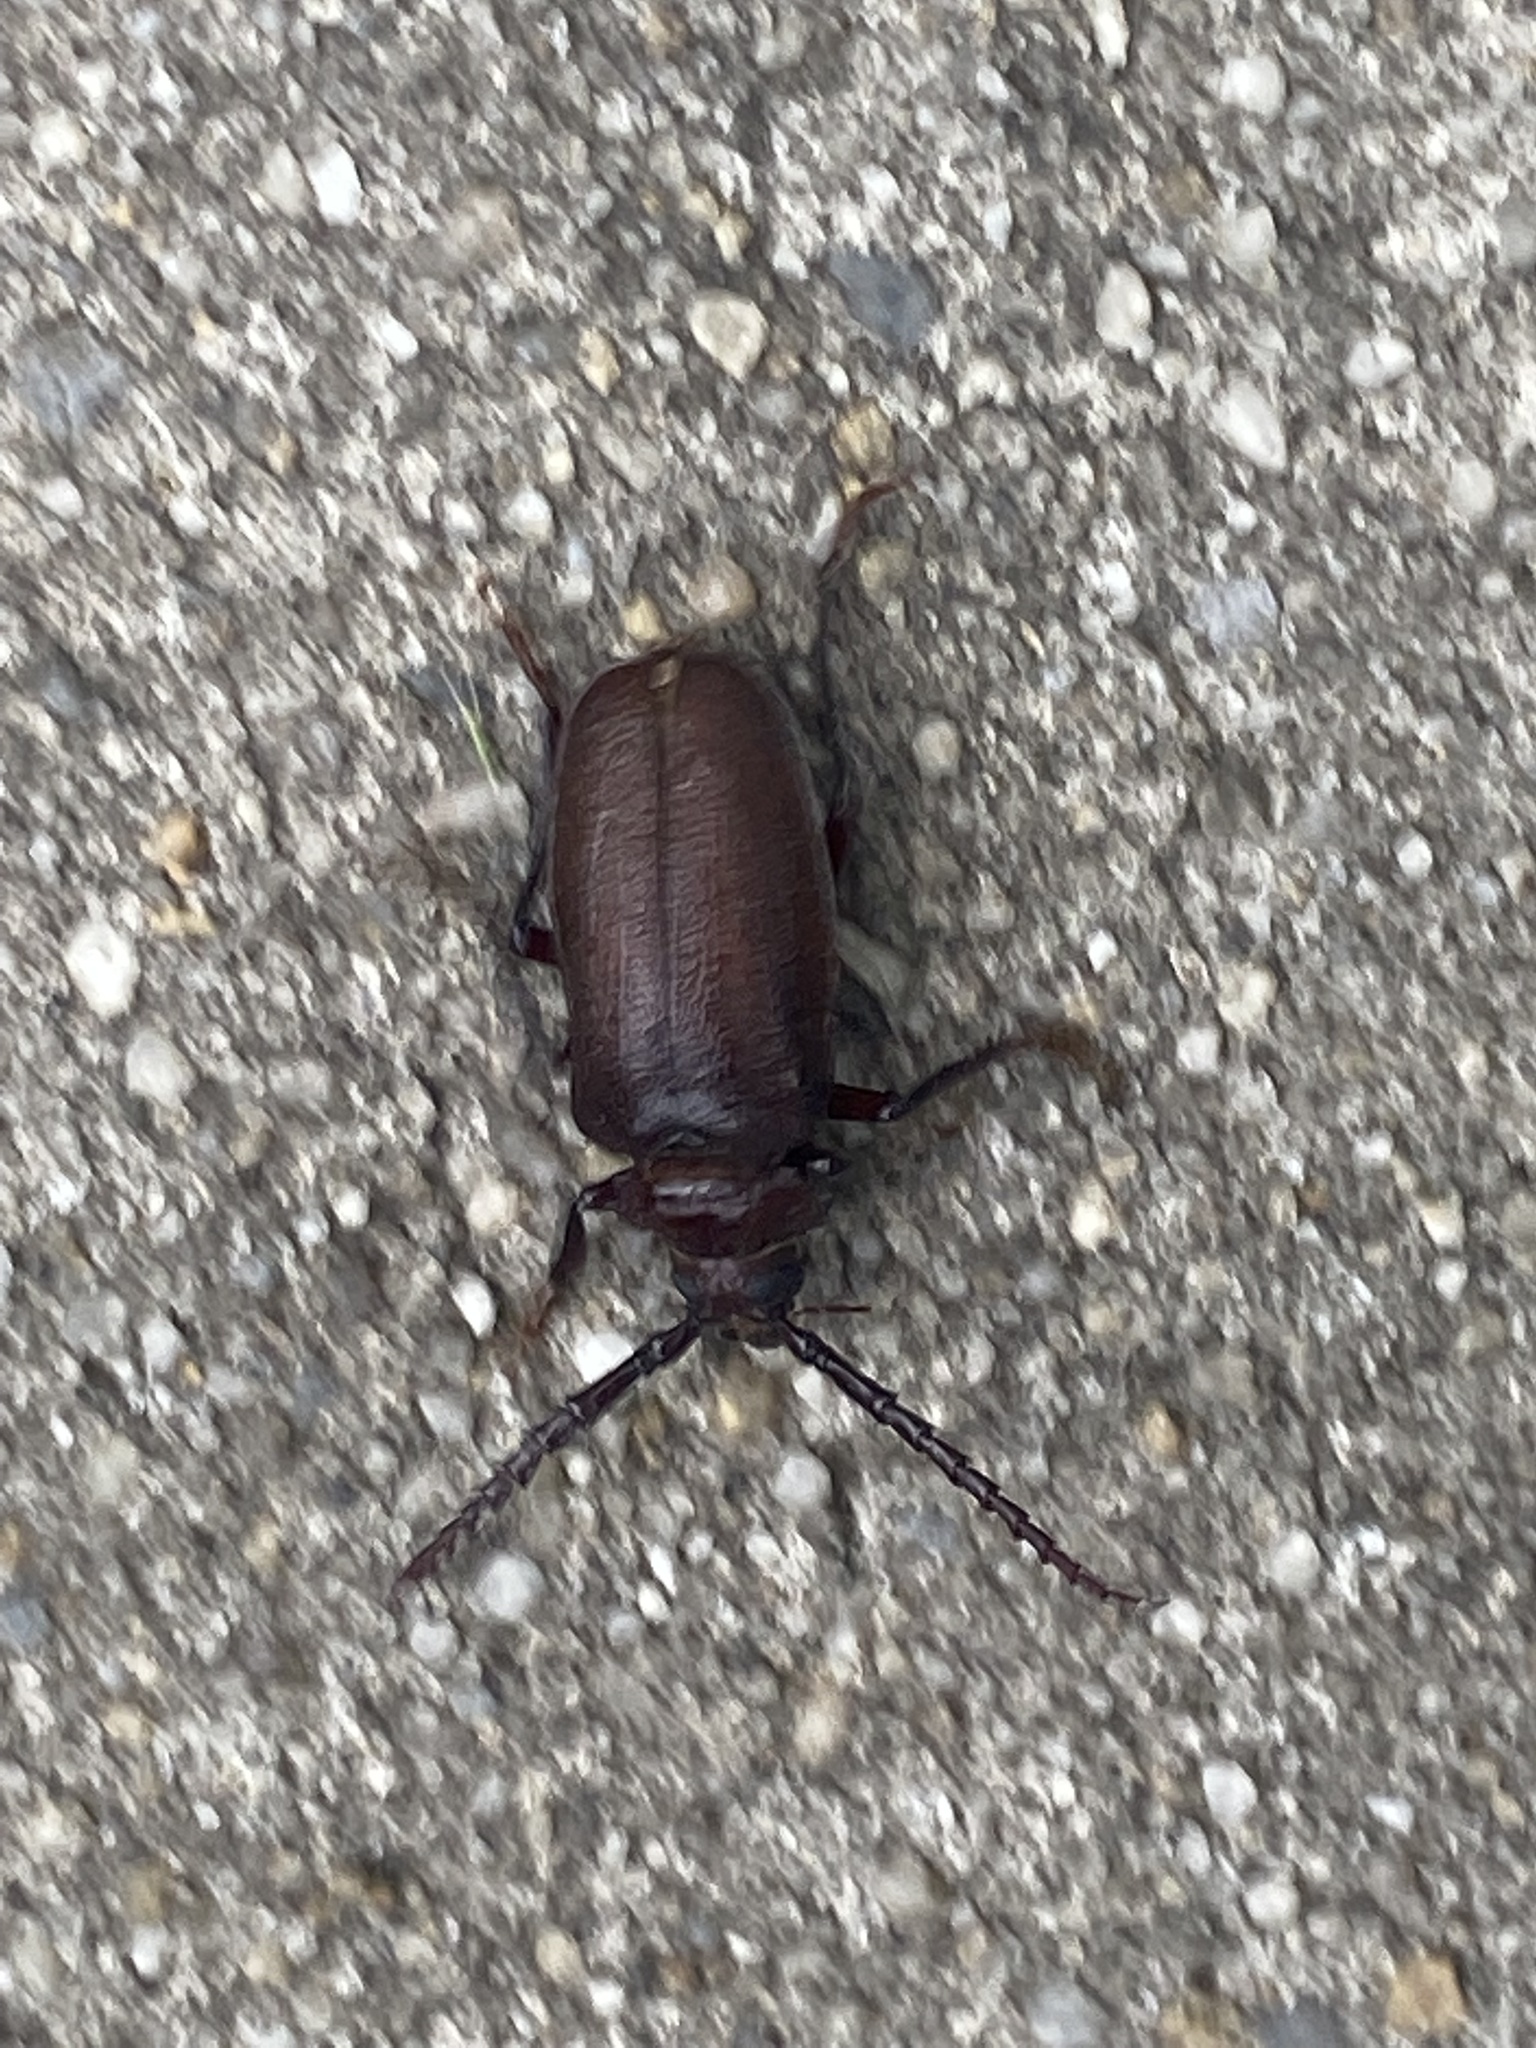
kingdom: Animalia
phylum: Arthropoda
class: Insecta
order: Coleoptera
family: Cerambycidae
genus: Prionus
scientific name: Prionus laticollis
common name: Broad necked prionus
